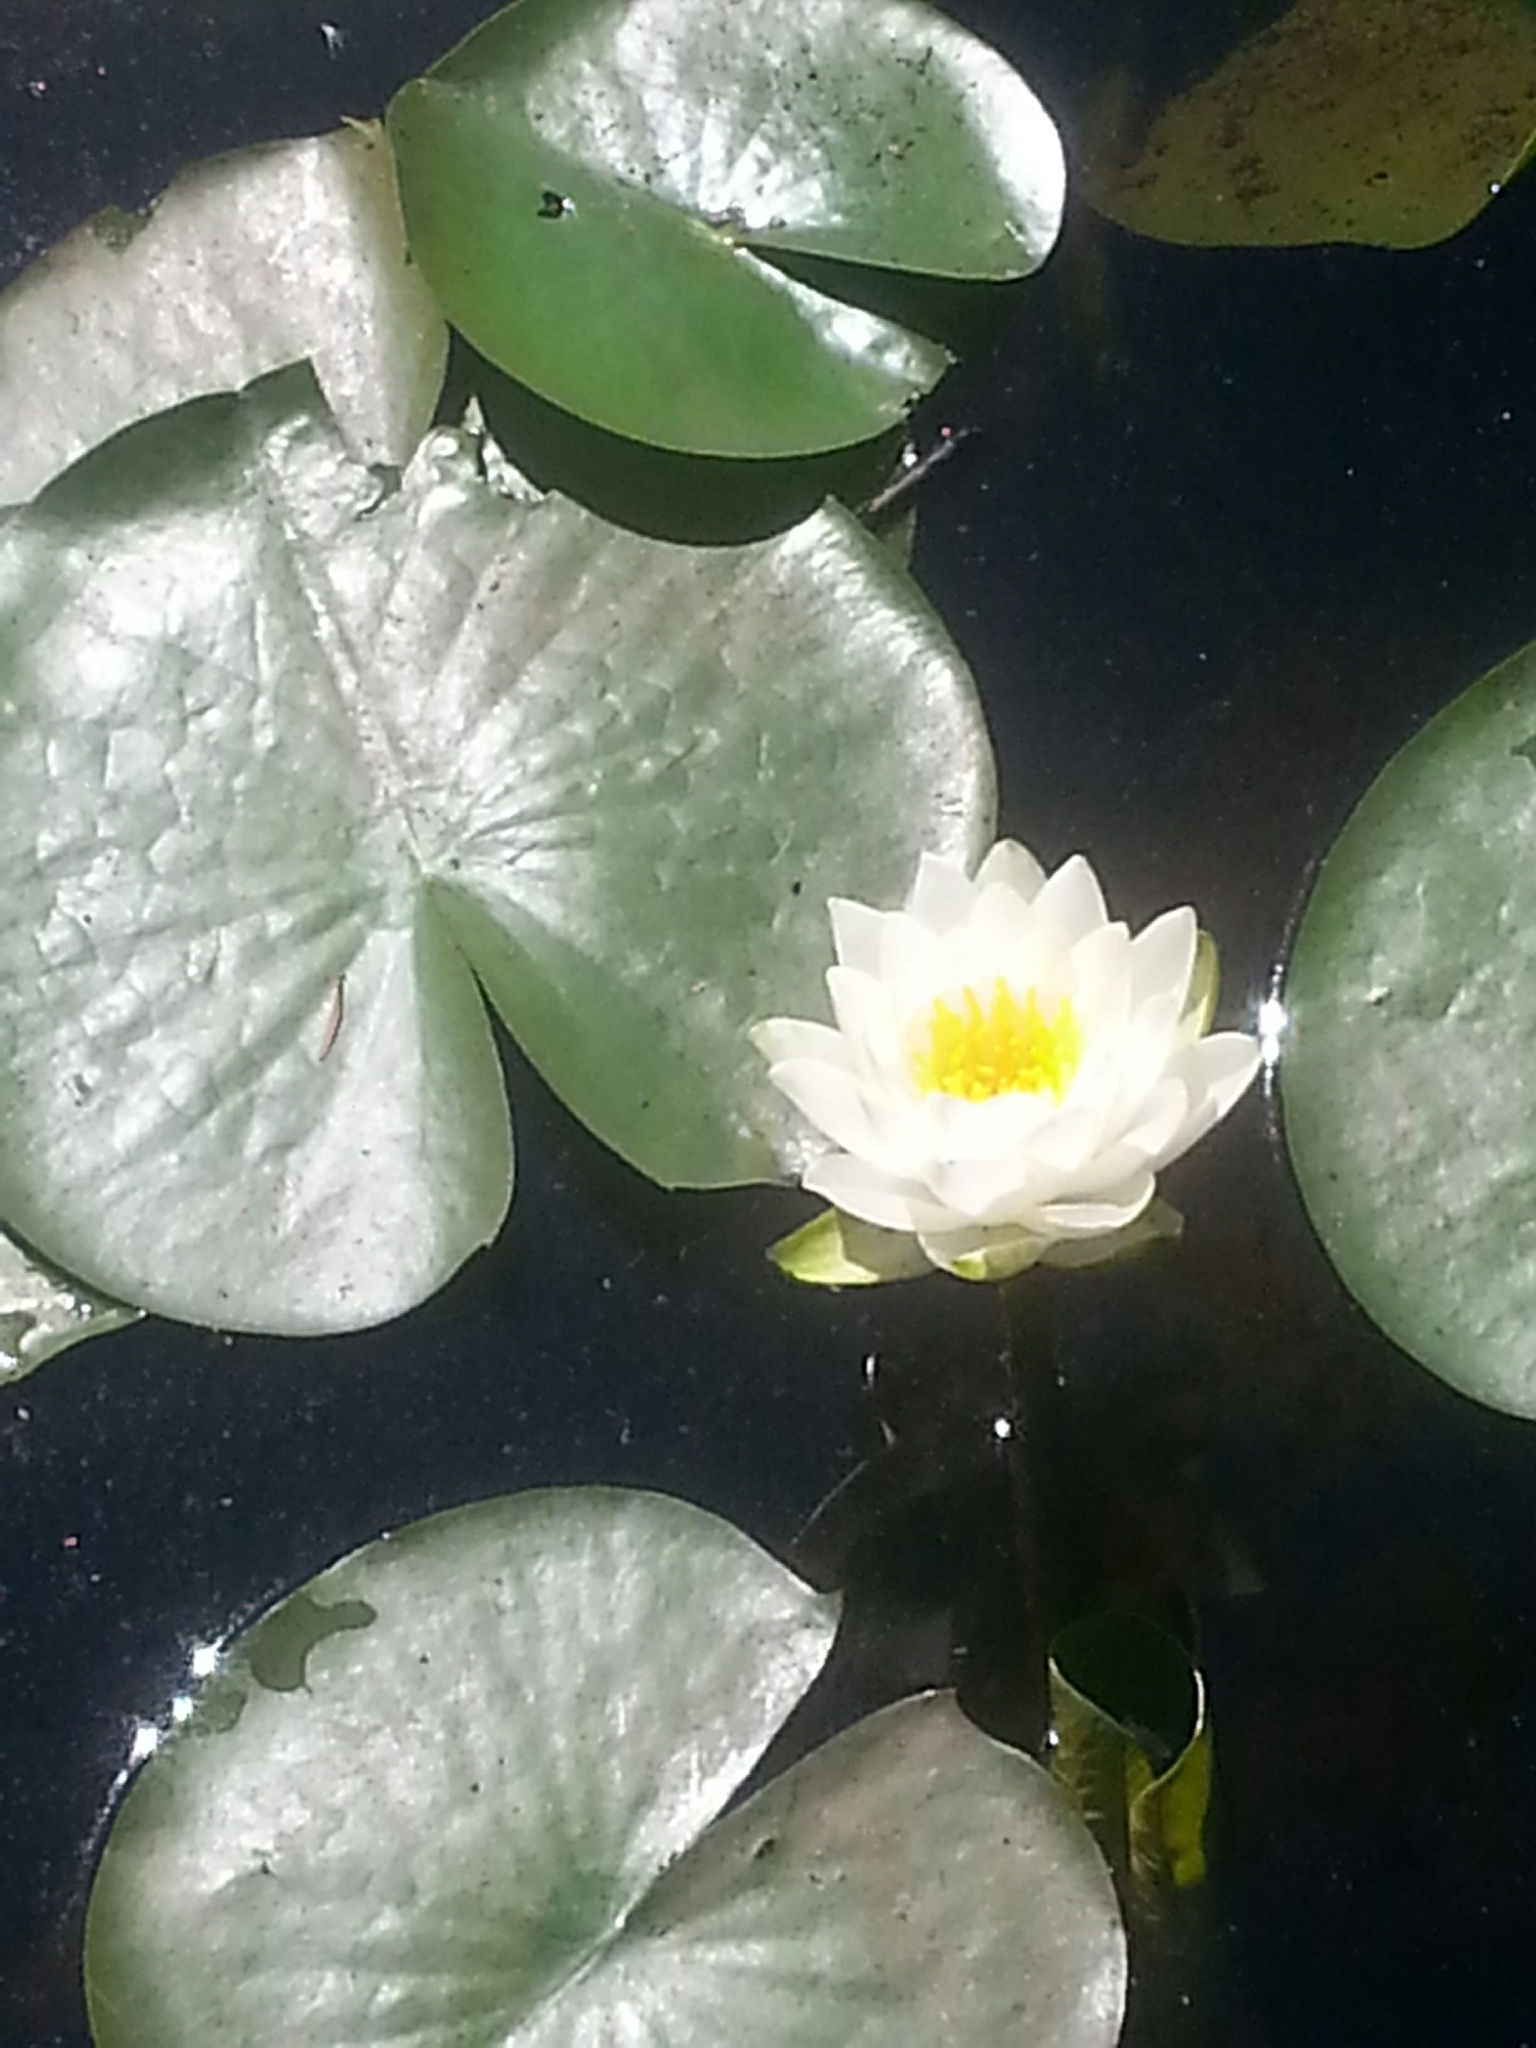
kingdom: Plantae
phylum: Tracheophyta
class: Magnoliopsida
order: Nymphaeales
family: Nymphaeaceae
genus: Nymphaea
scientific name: Nymphaea odorata
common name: Fragrant water-lily
